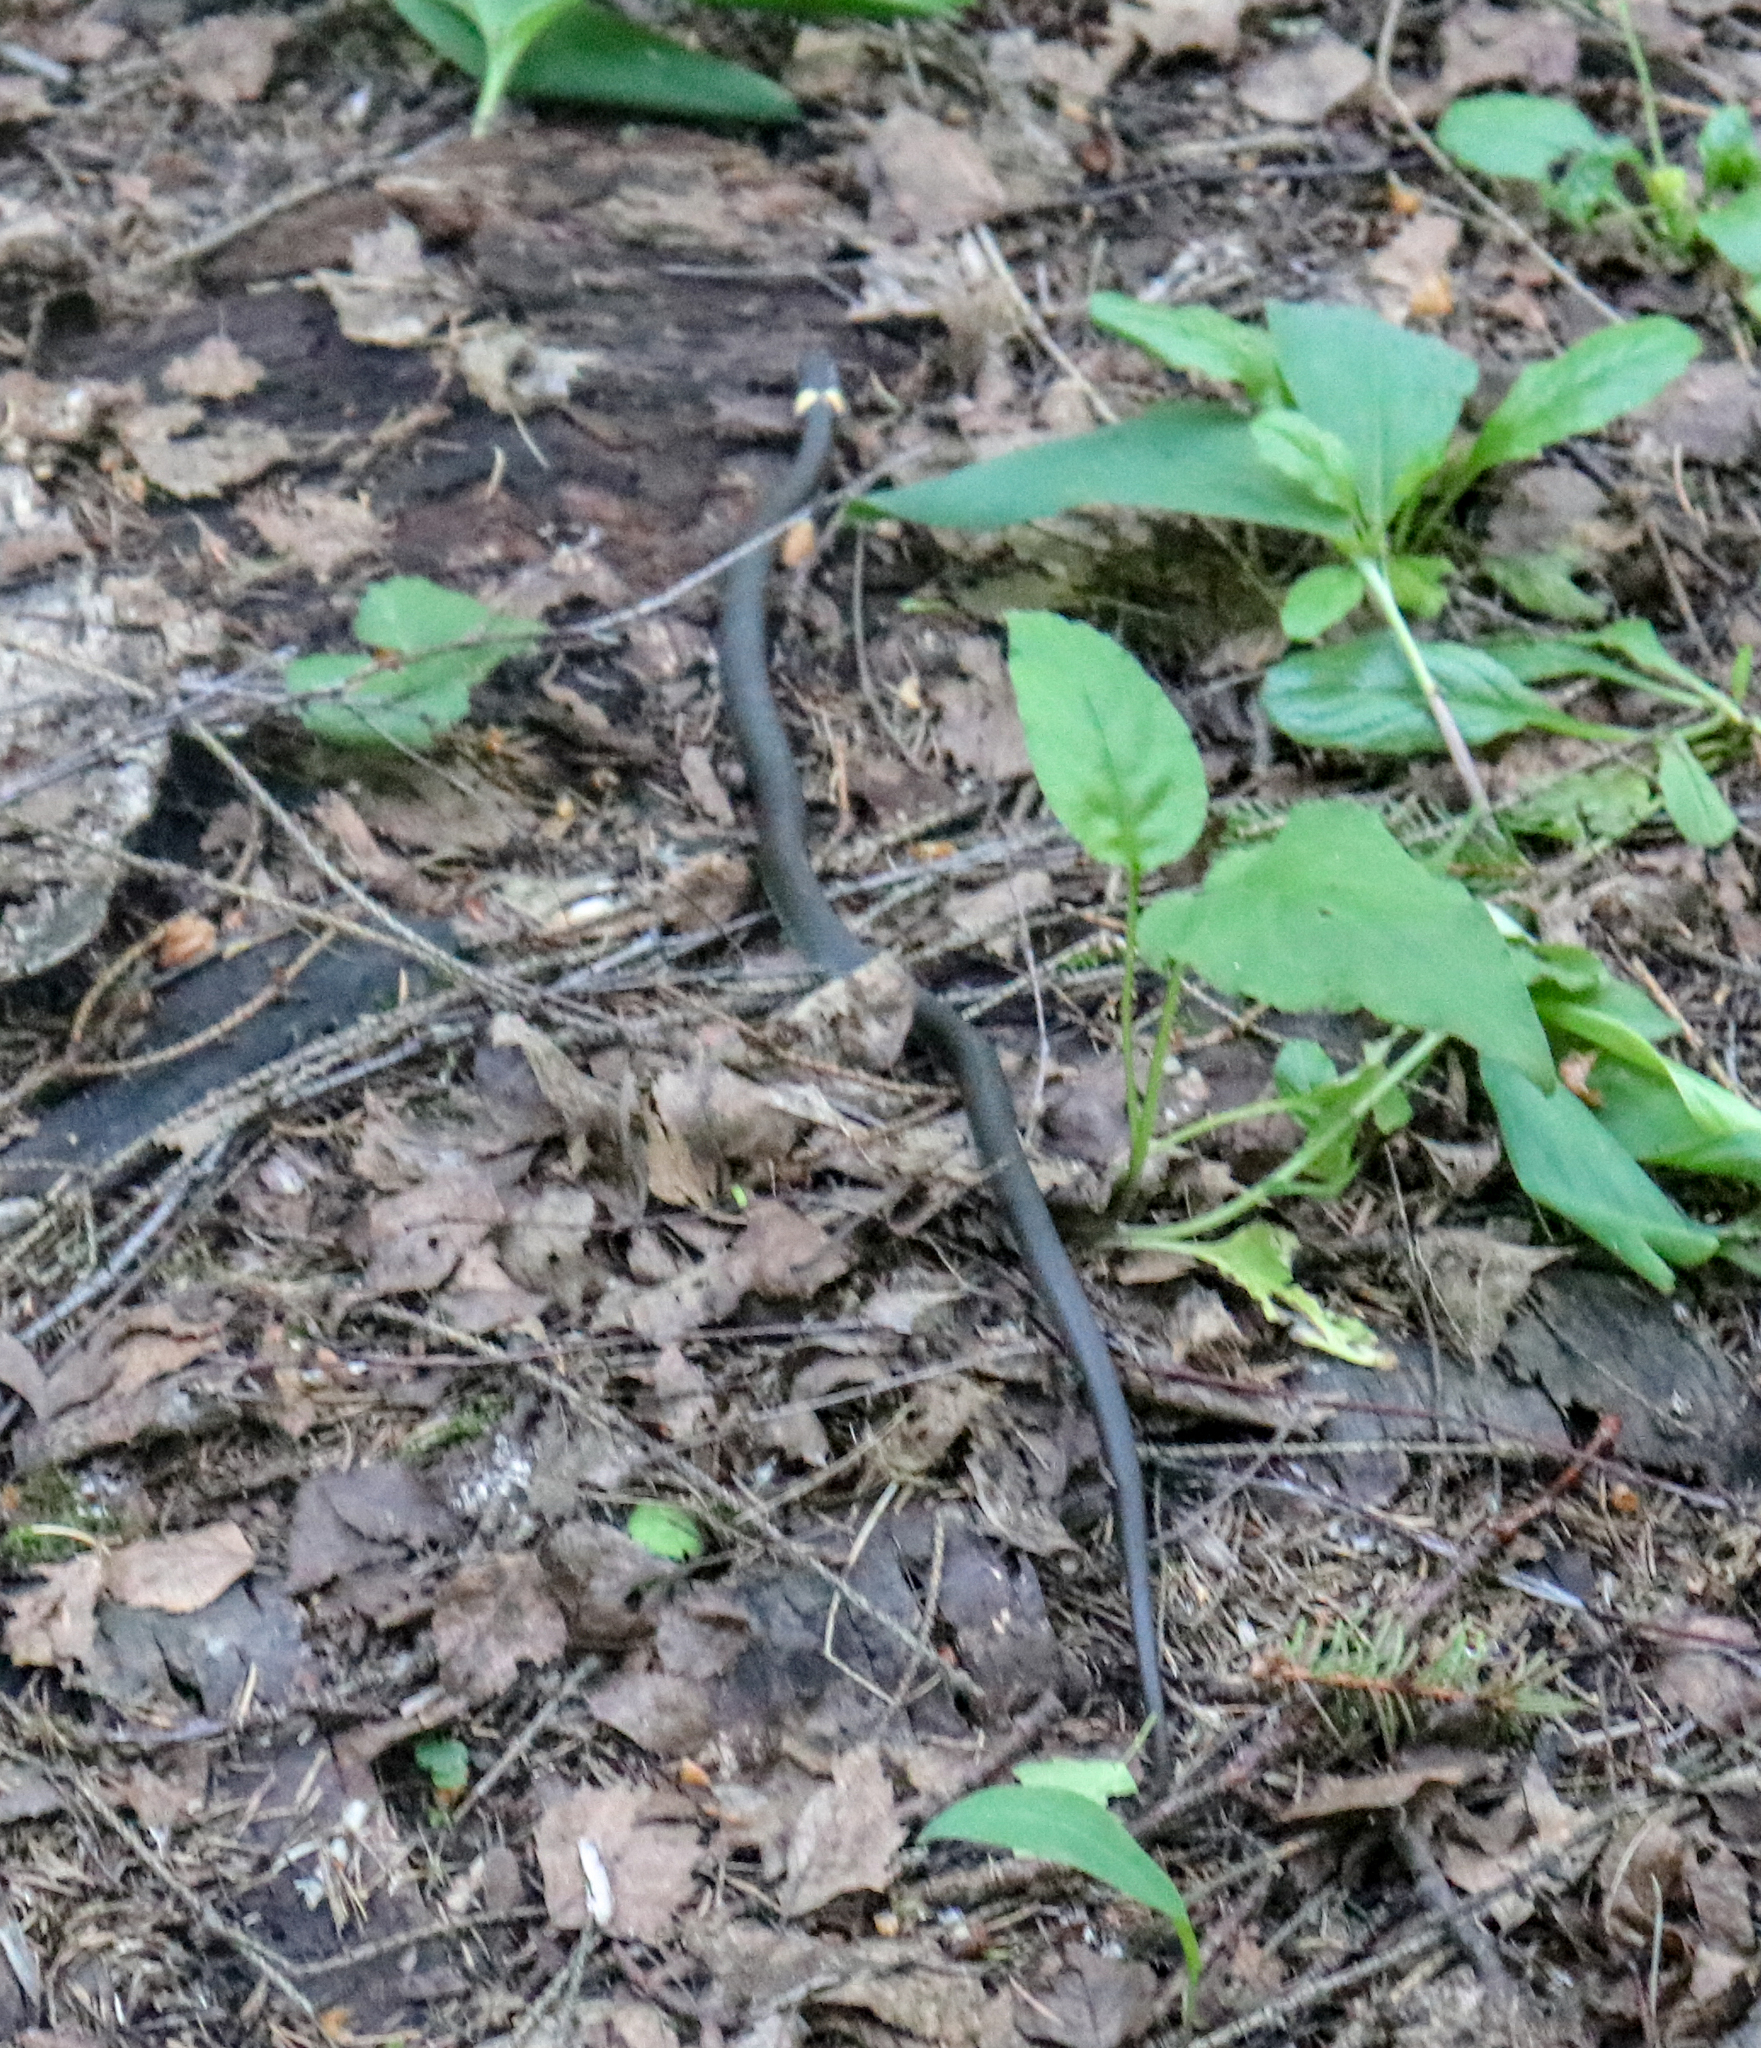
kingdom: Animalia
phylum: Chordata
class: Squamata
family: Colubridae
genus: Natrix
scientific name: Natrix natrix
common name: Grass snake
